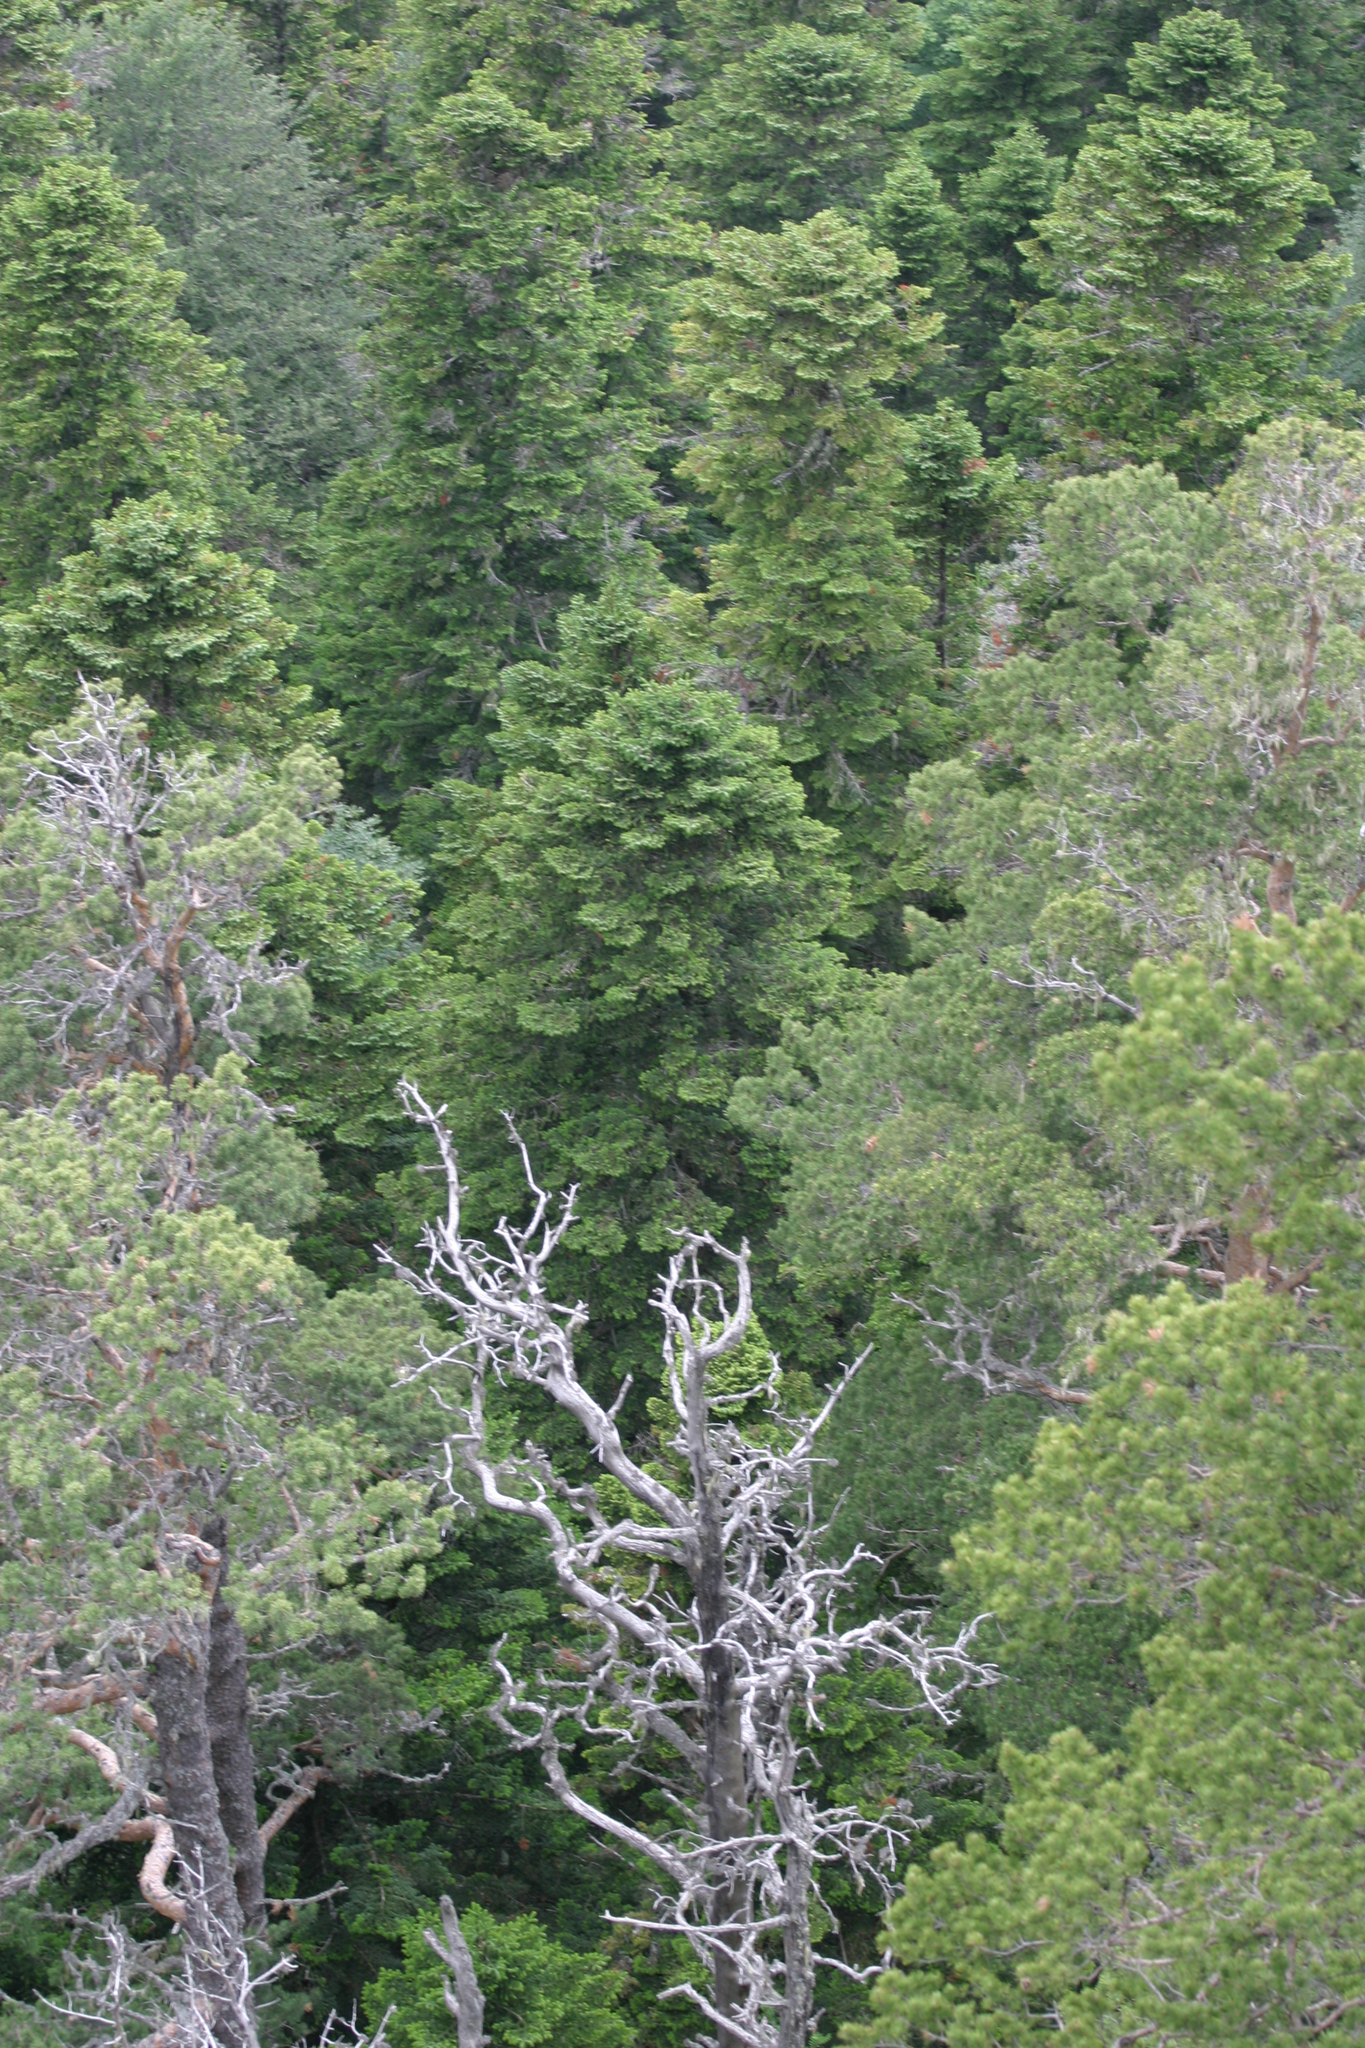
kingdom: Plantae
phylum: Tracheophyta
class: Pinopsida
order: Pinales
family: Pinaceae
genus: Pinus
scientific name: Pinus sylvestris
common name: Scots pine
